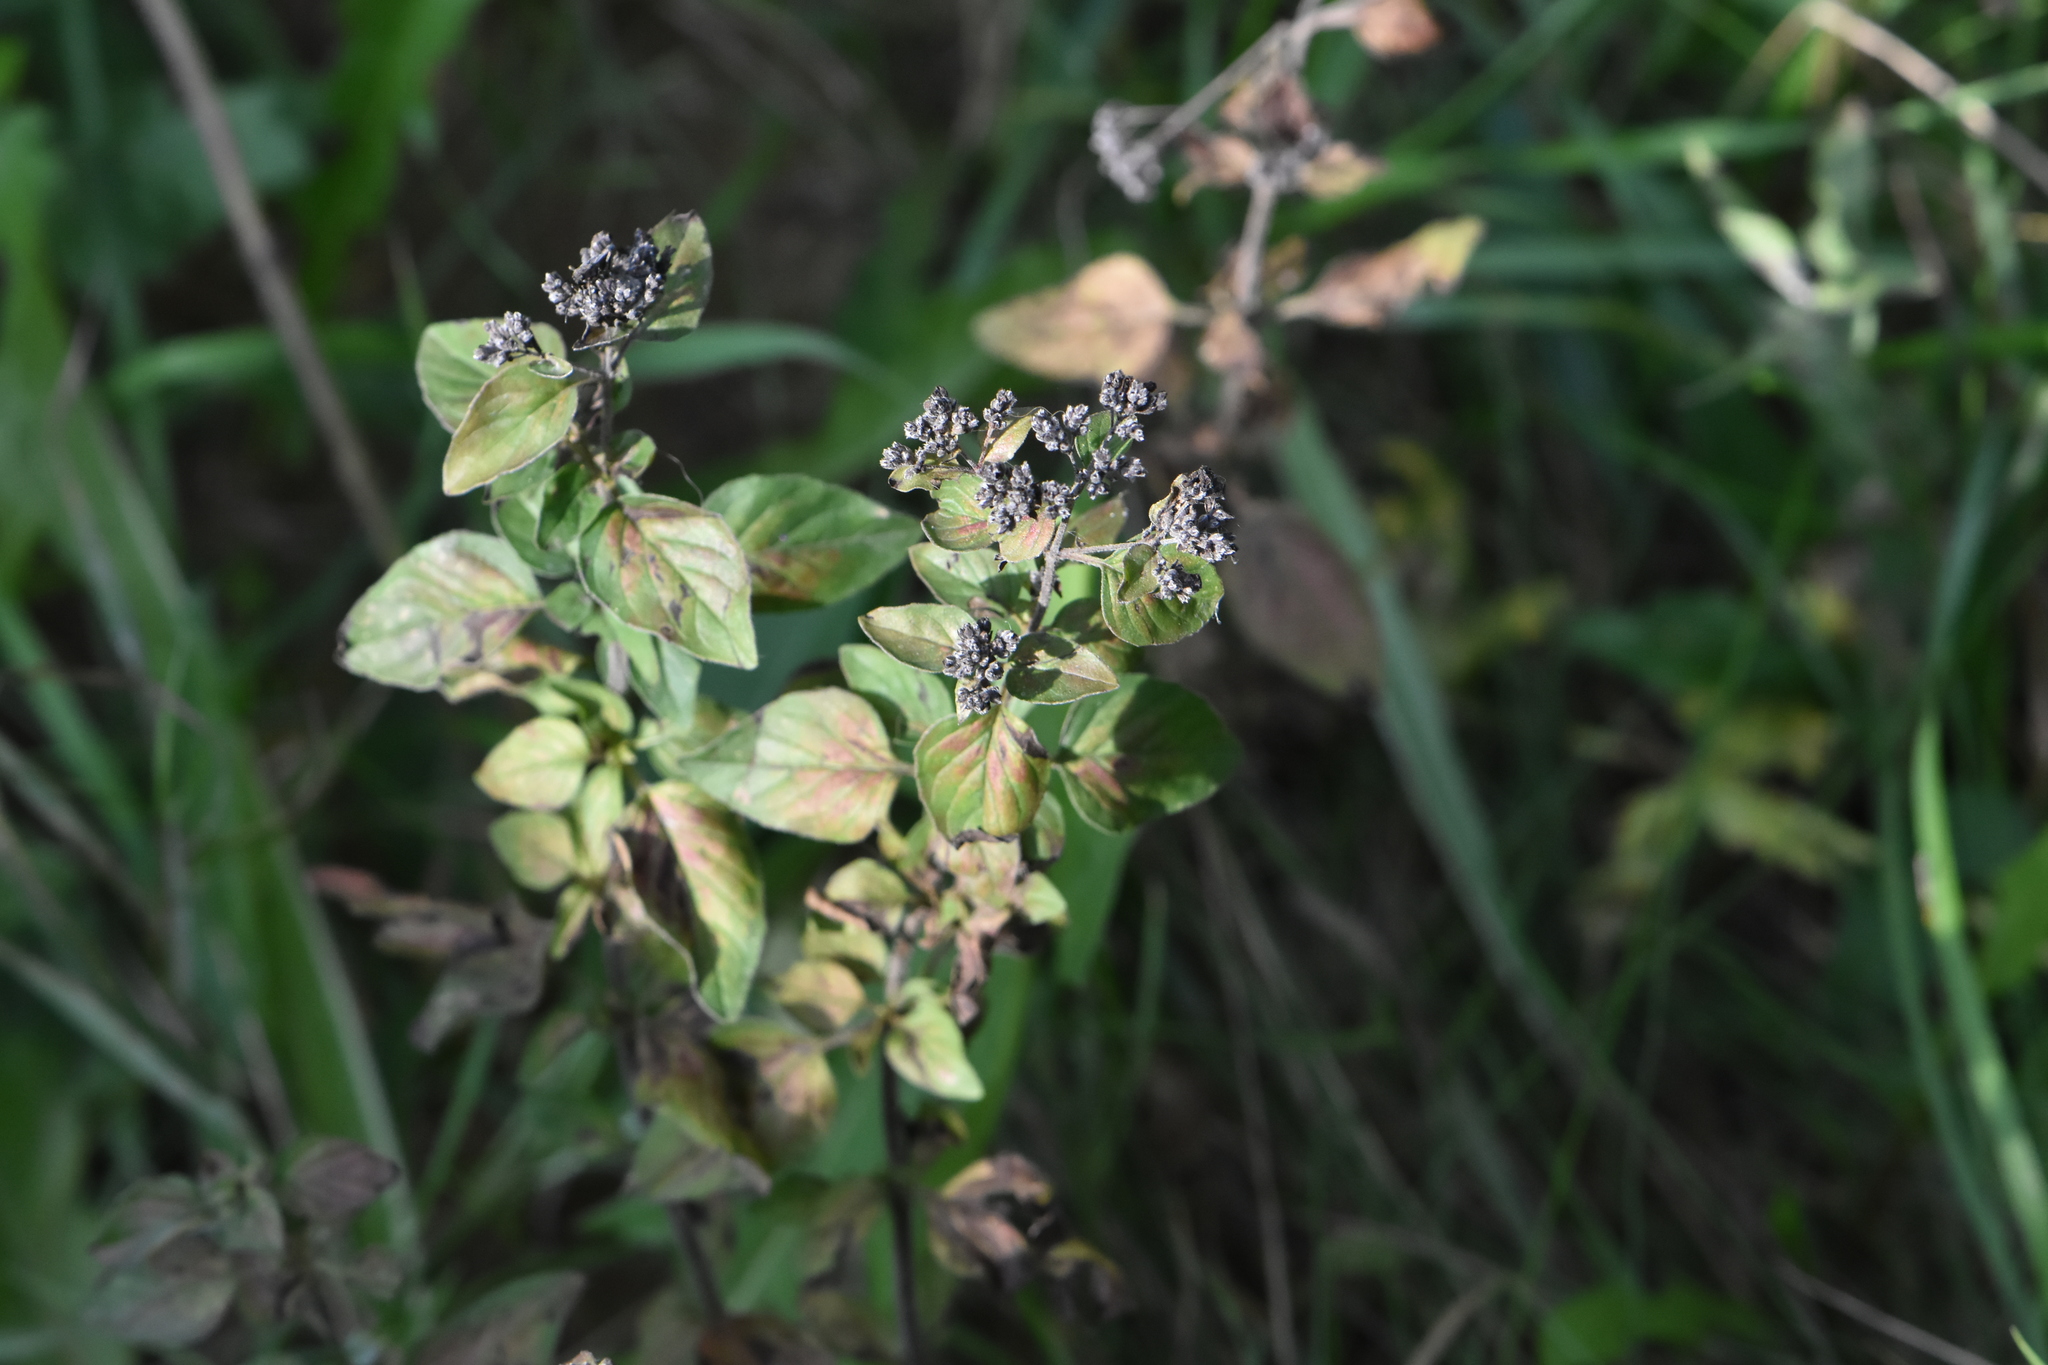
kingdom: Plantae
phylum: Tracheophyta
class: Magnoliopsida
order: Lamiales
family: Lamiaceae
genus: Origanum
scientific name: Origanum vulgare
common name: Wild marjoram
